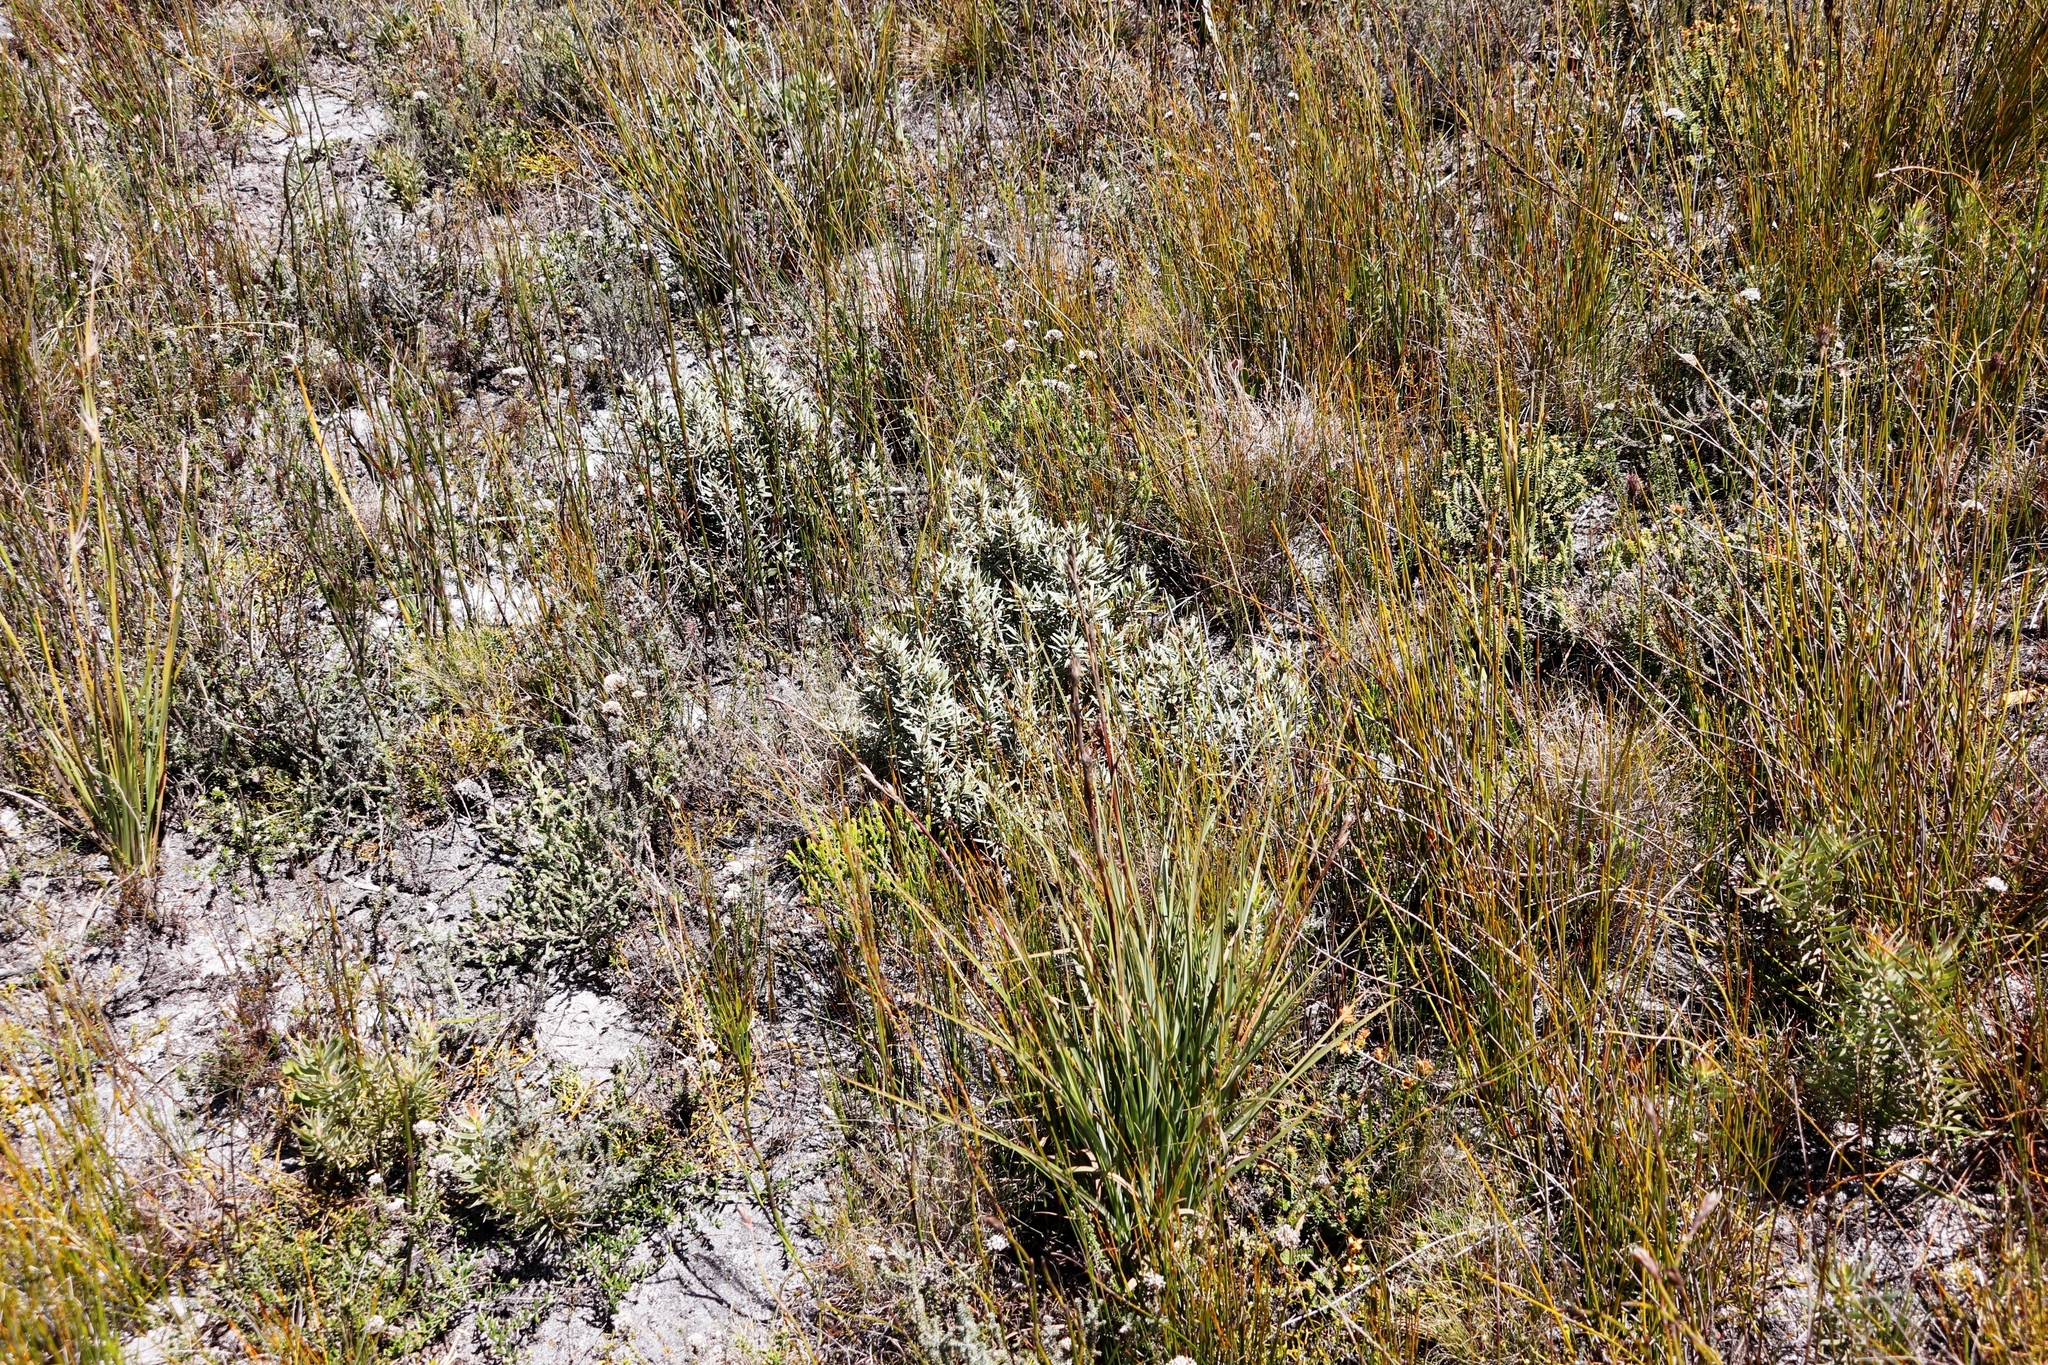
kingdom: Plantae
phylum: Tracheophyta
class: Magnoliopsida
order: Cornales
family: Grubbiaceae
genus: Grubbia
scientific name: Grubbia tomentosa
